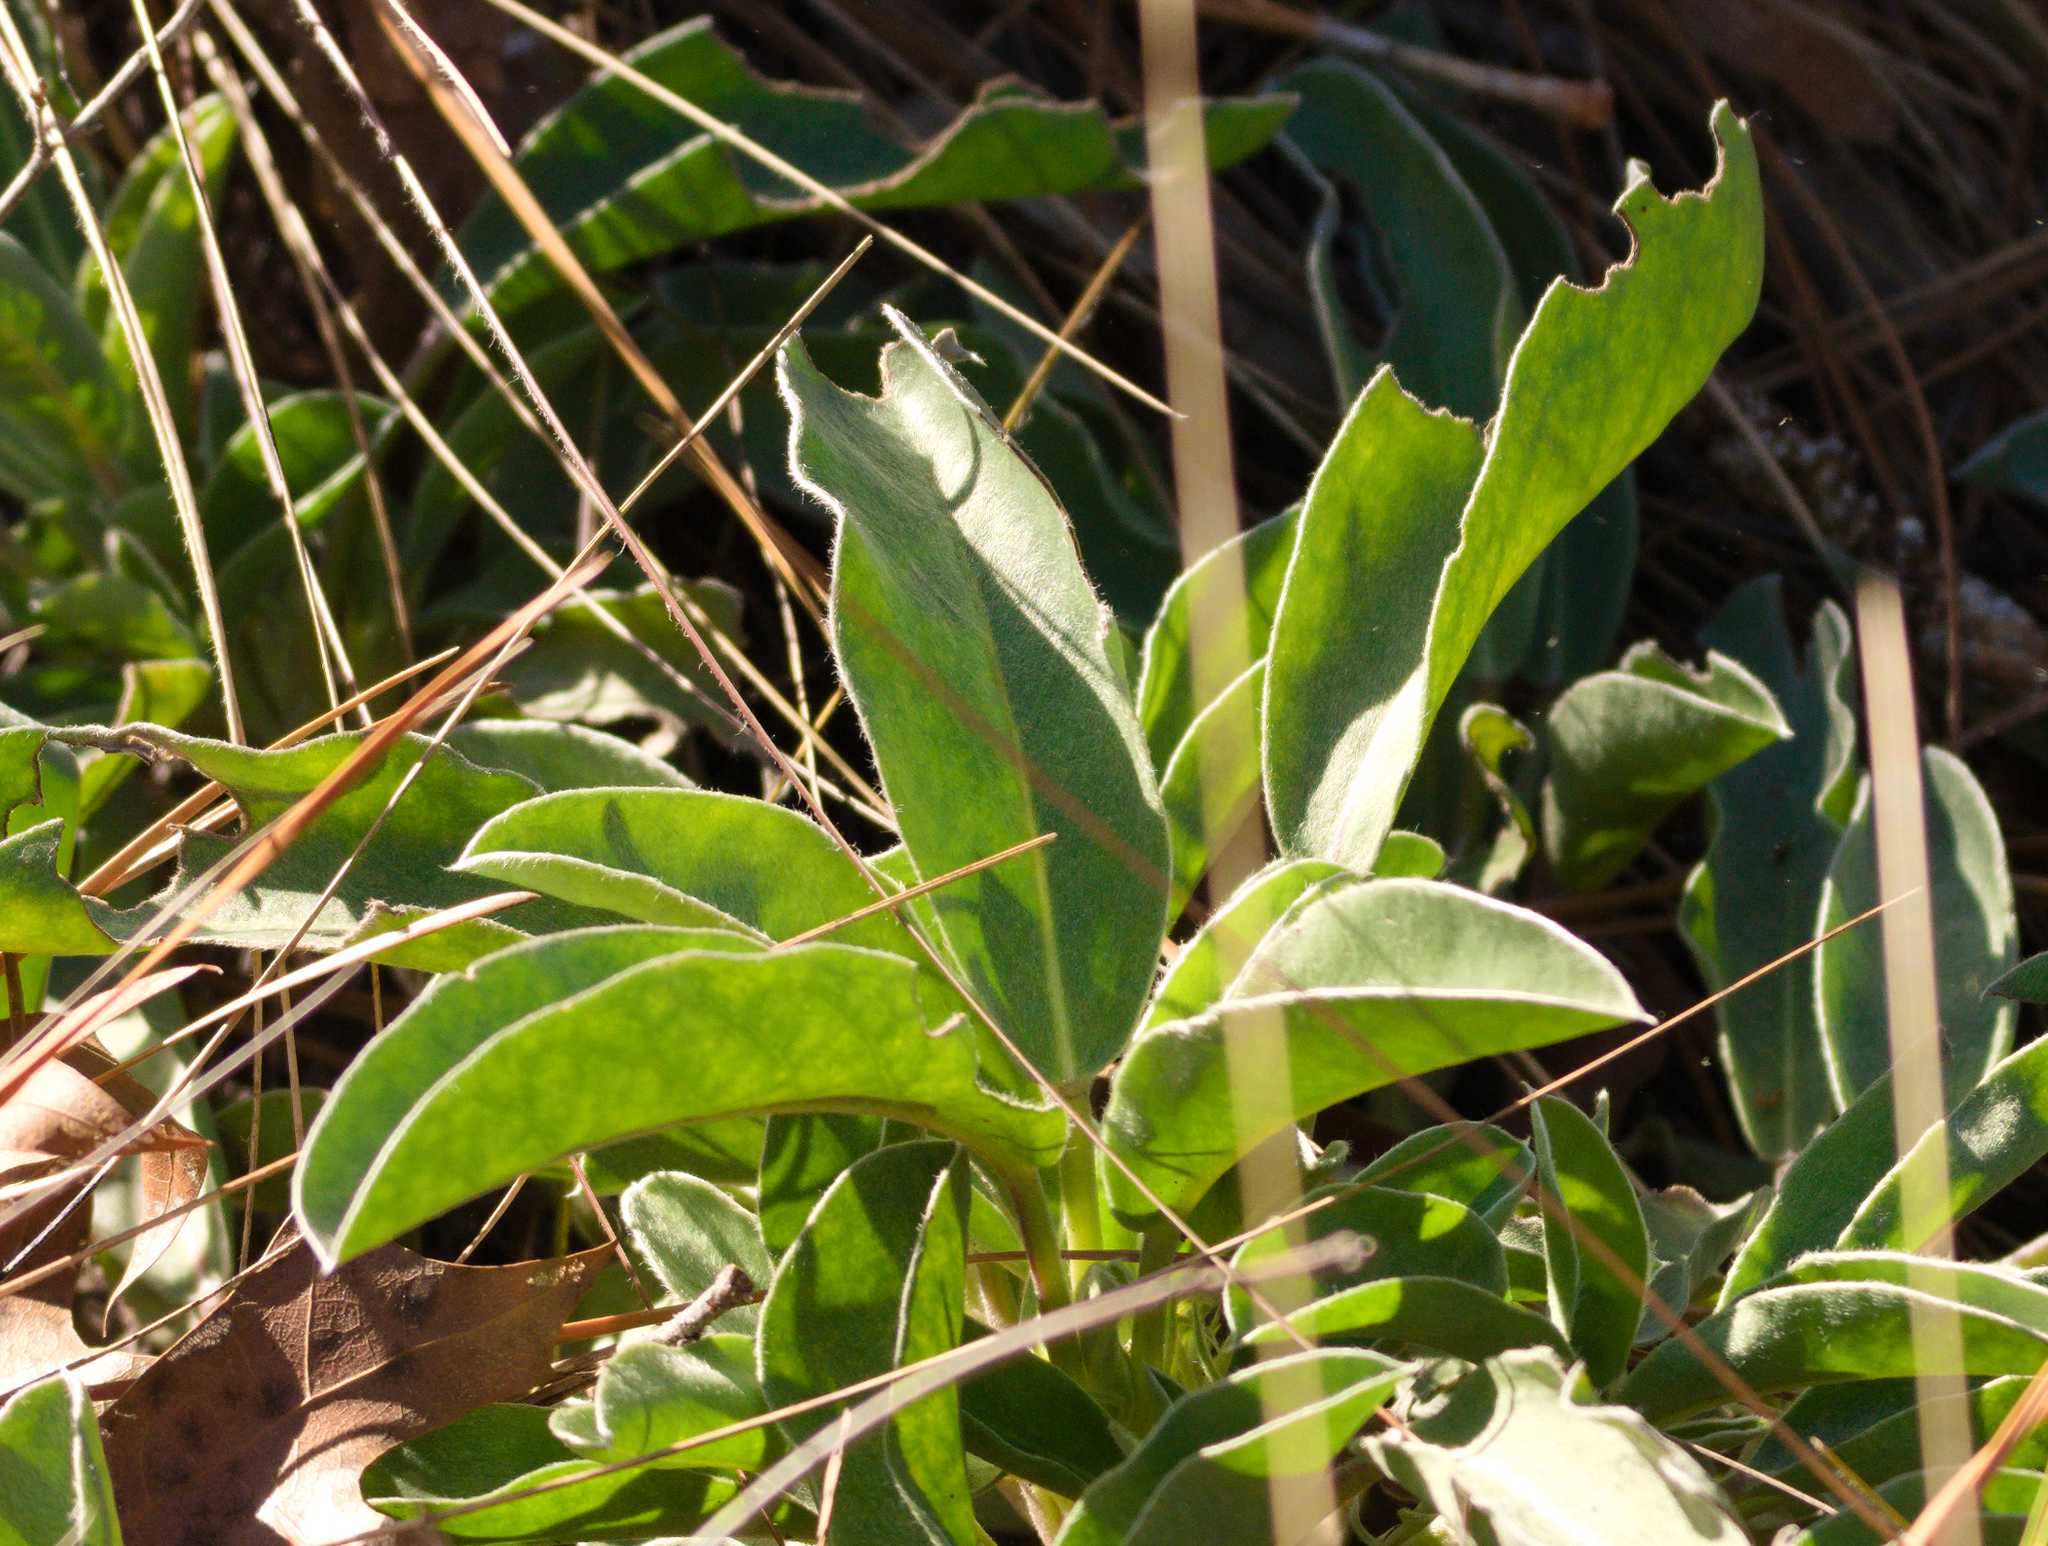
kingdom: Plantae
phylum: Tracheophyta
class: Magnoliopsida
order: Fabales
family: Fabaceae
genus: Lupinus
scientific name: Lupinus diffusus
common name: Oak ridge lupine
